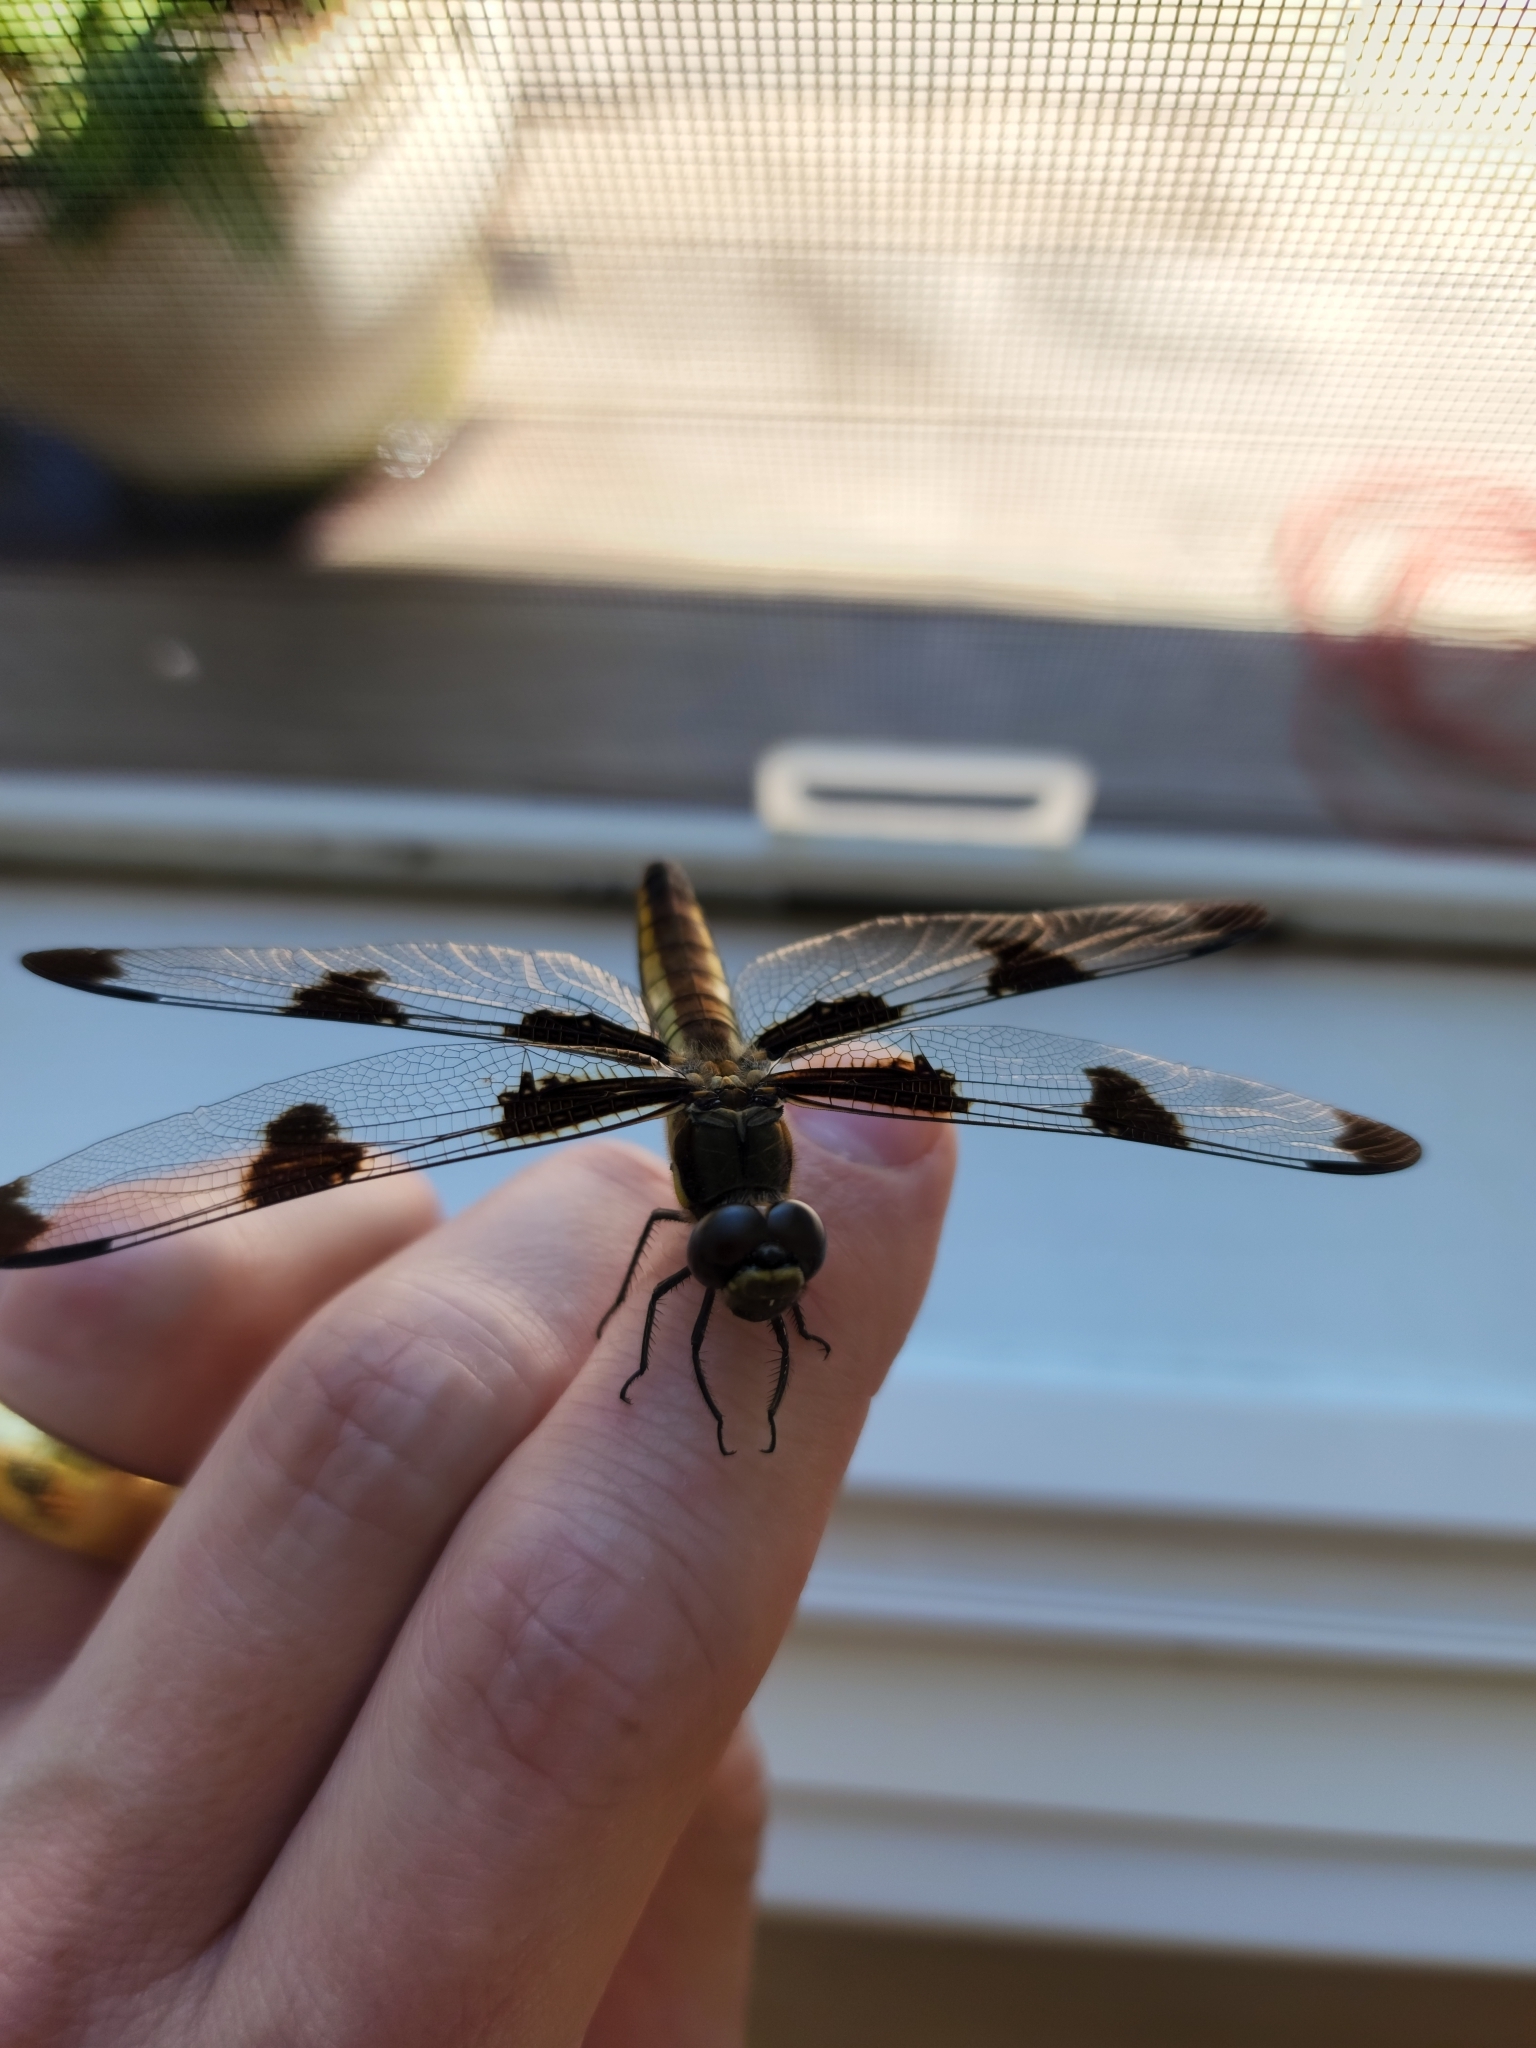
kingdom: Animalia
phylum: Arthropoda
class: Insecta
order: Odonata
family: Libellulidae
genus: Libellula
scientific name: Libellula pulchella
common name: Twelve-spotted skimmer
